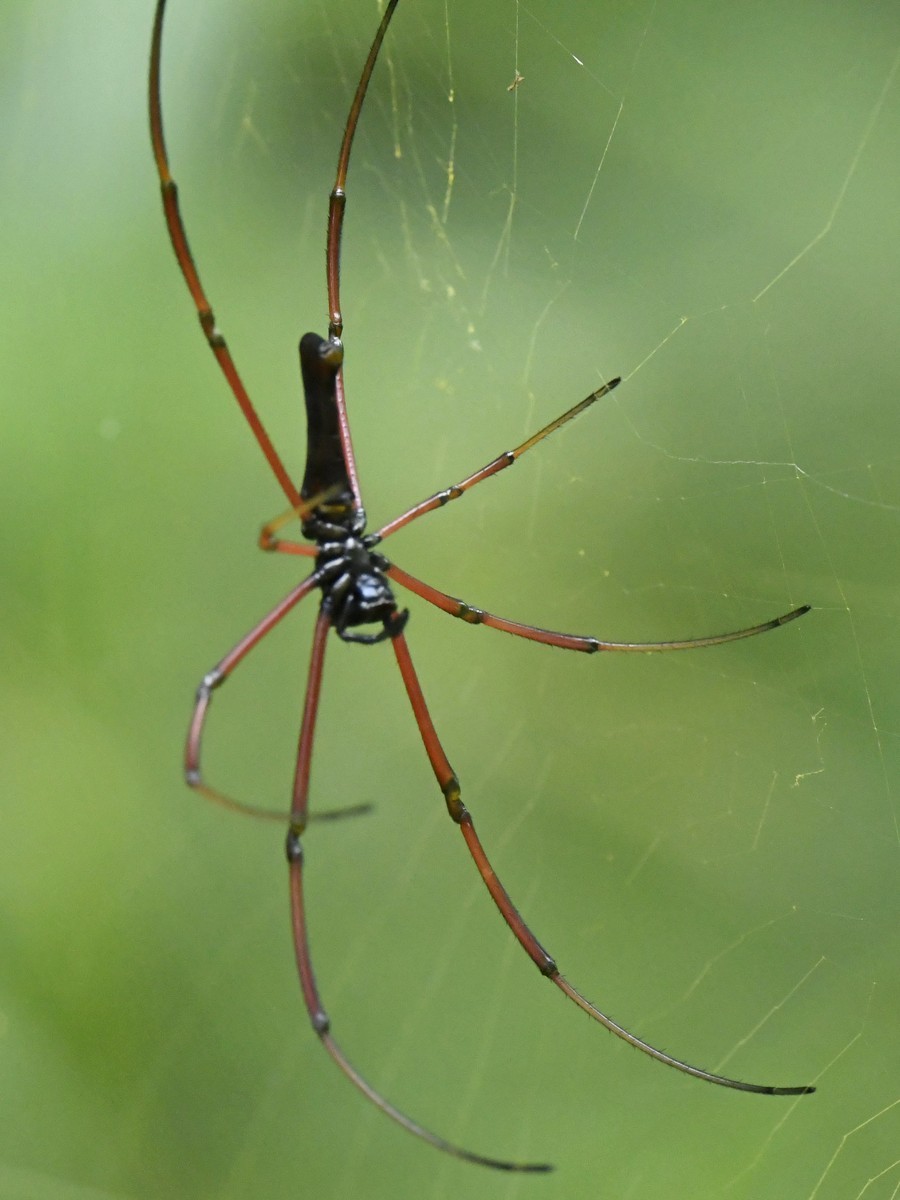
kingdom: Animalia
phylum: Arthropoda
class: Arachnida
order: Araneae
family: Araneidae
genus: Nephila
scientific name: Nephila kuhli
